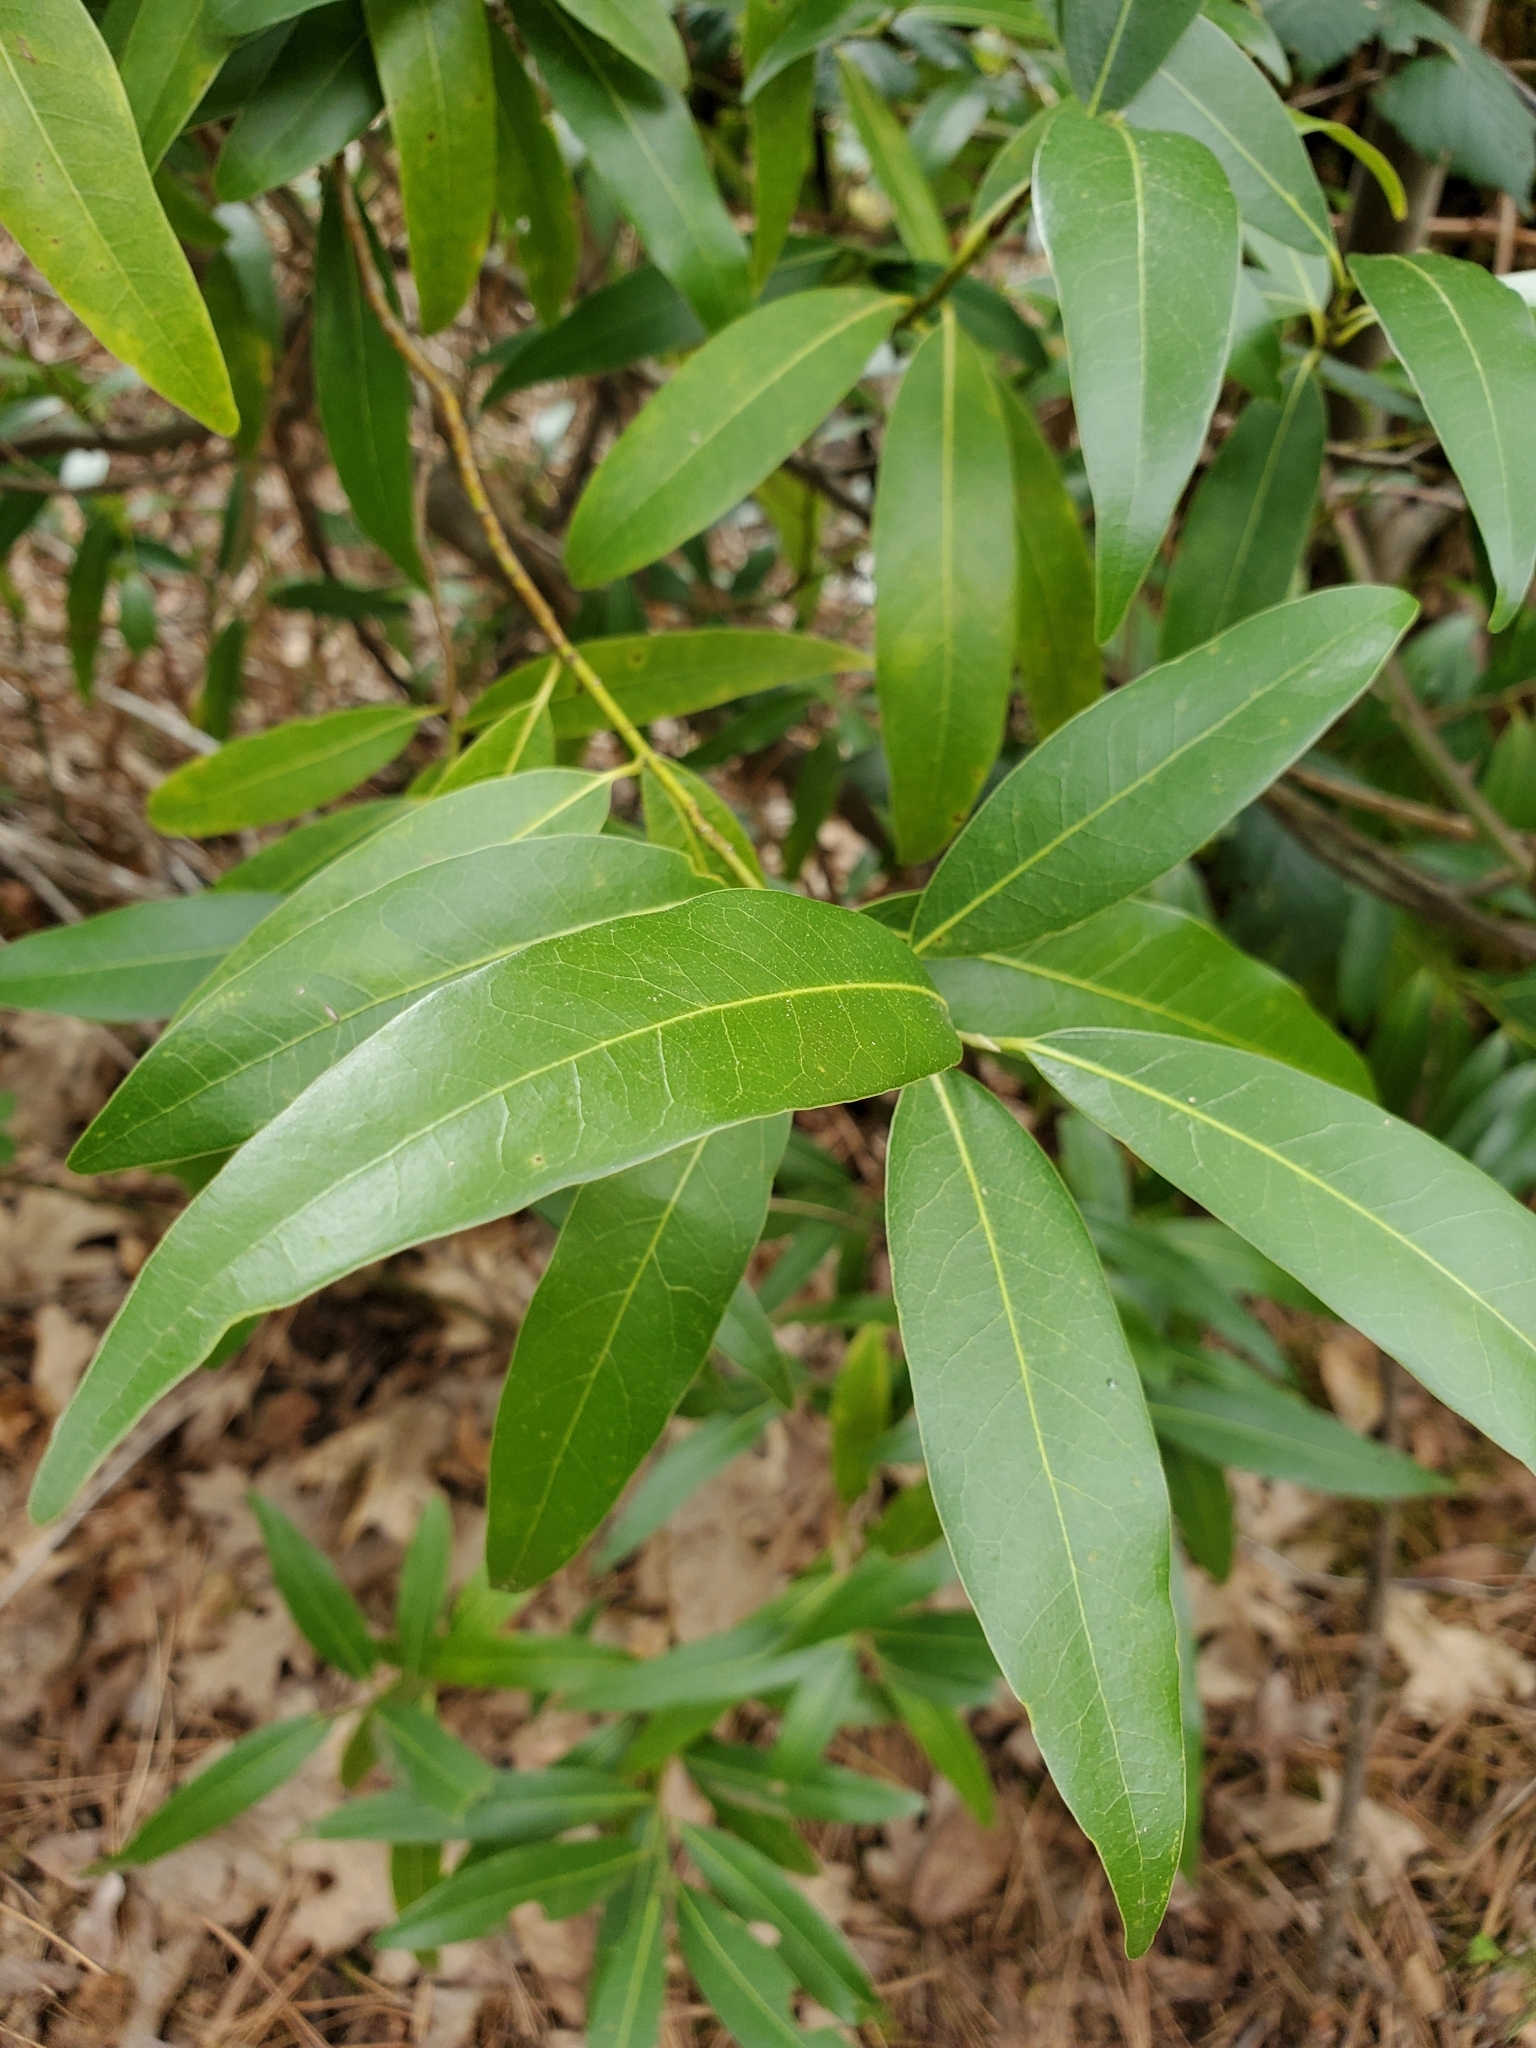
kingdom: Plantae
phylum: Tracheophyta
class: Magnoliopsida
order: Laurales
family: Lauraceae
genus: Umbellularia
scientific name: Umbellularia californica
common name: California bay
